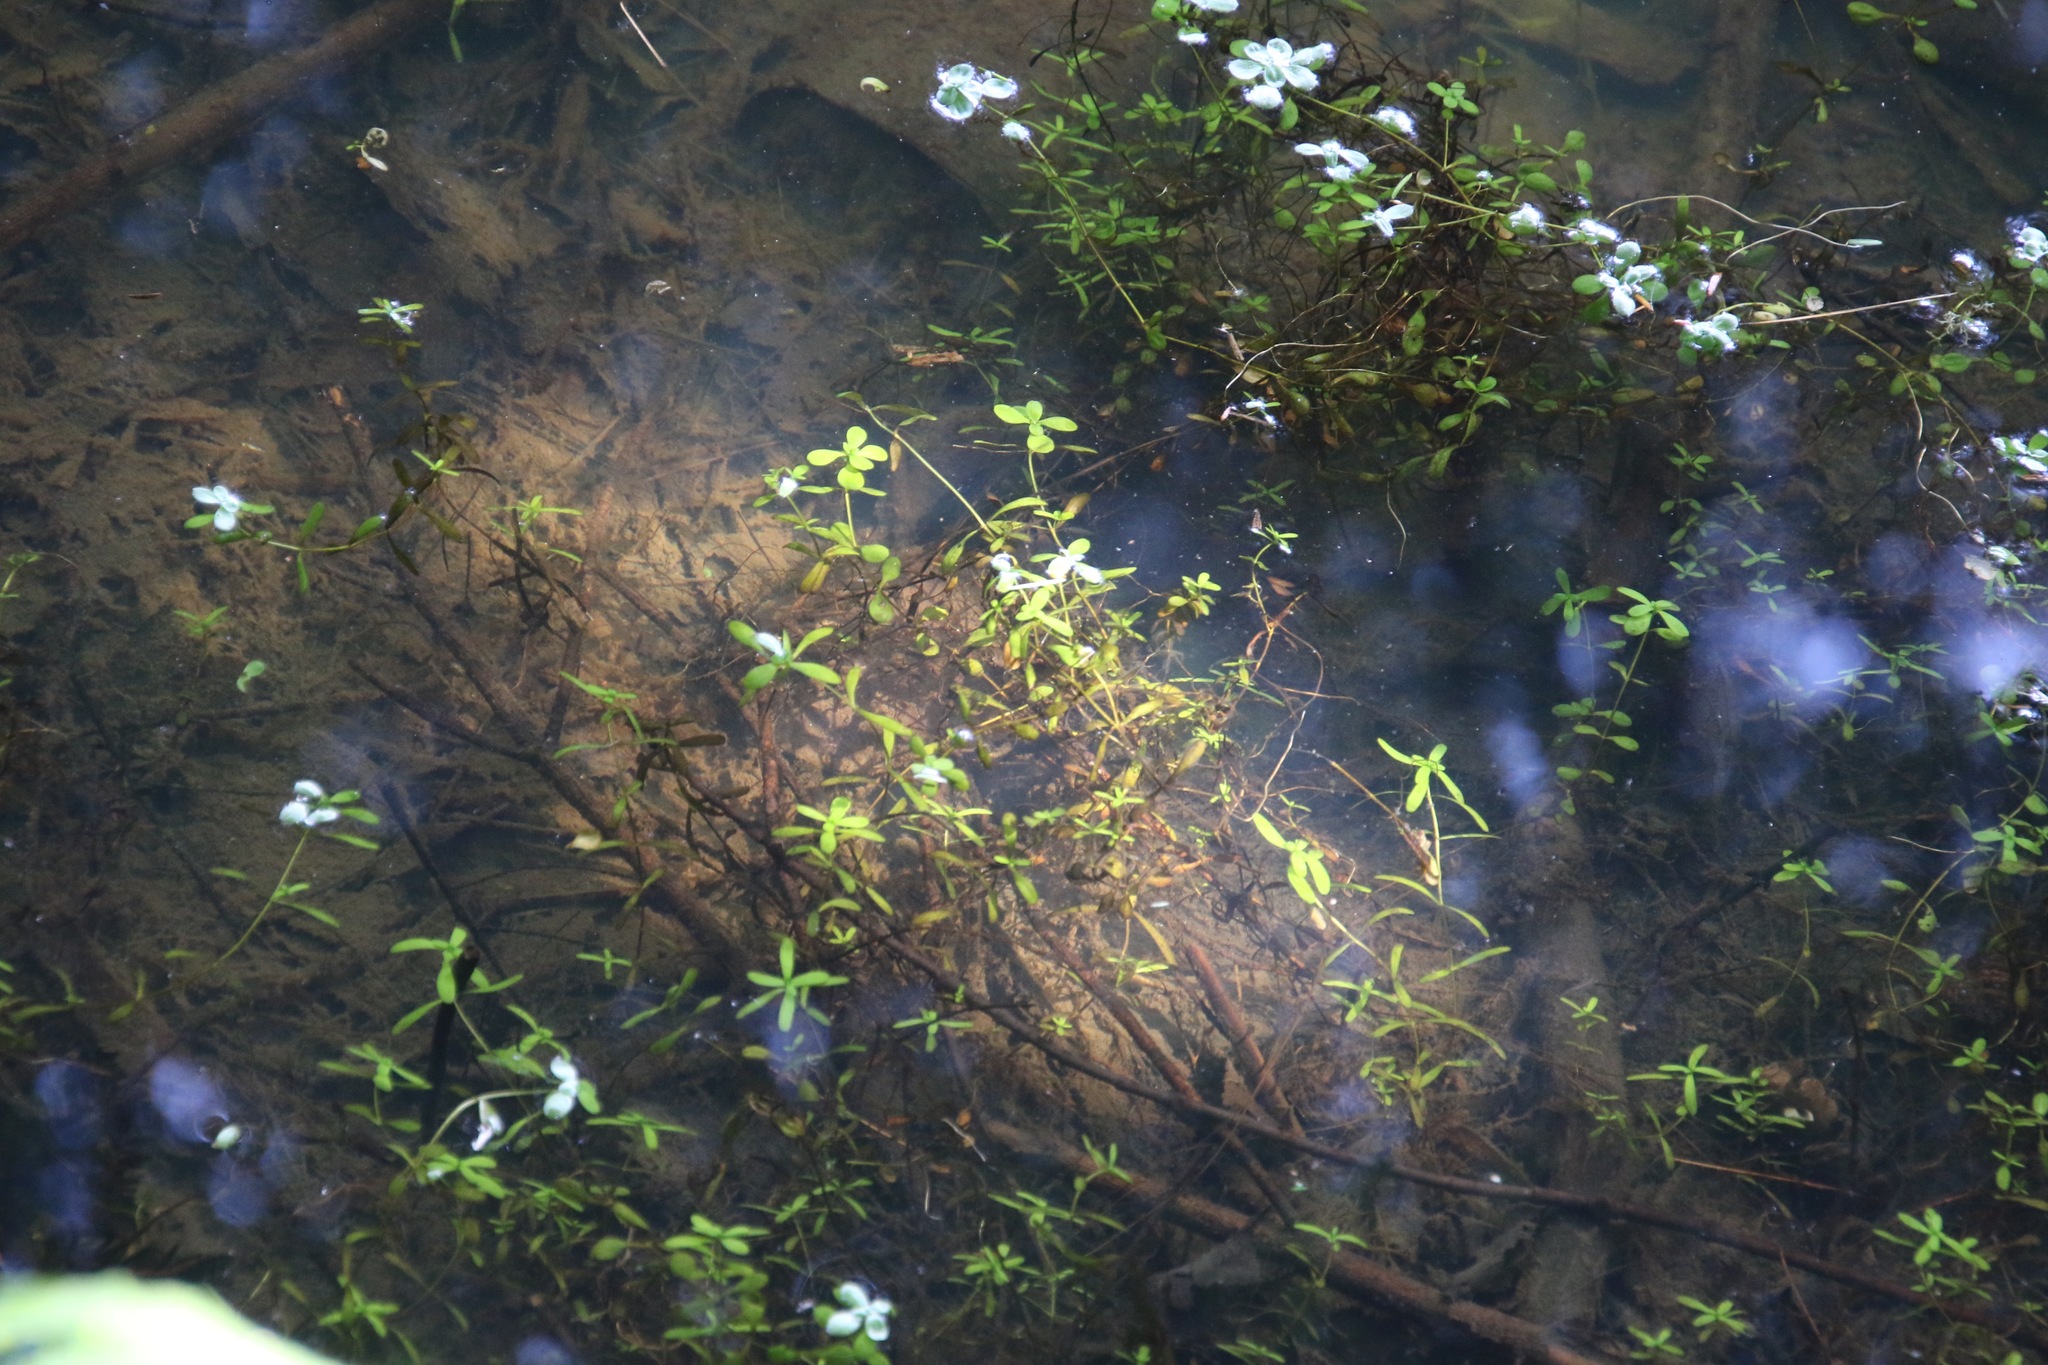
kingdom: Plantae
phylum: Tracheophyta
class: Magnoliopsida
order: Lamiales
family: Plantaginaceae
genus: Callitriche
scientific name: Callitriche palustris
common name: Spring water-starwort
